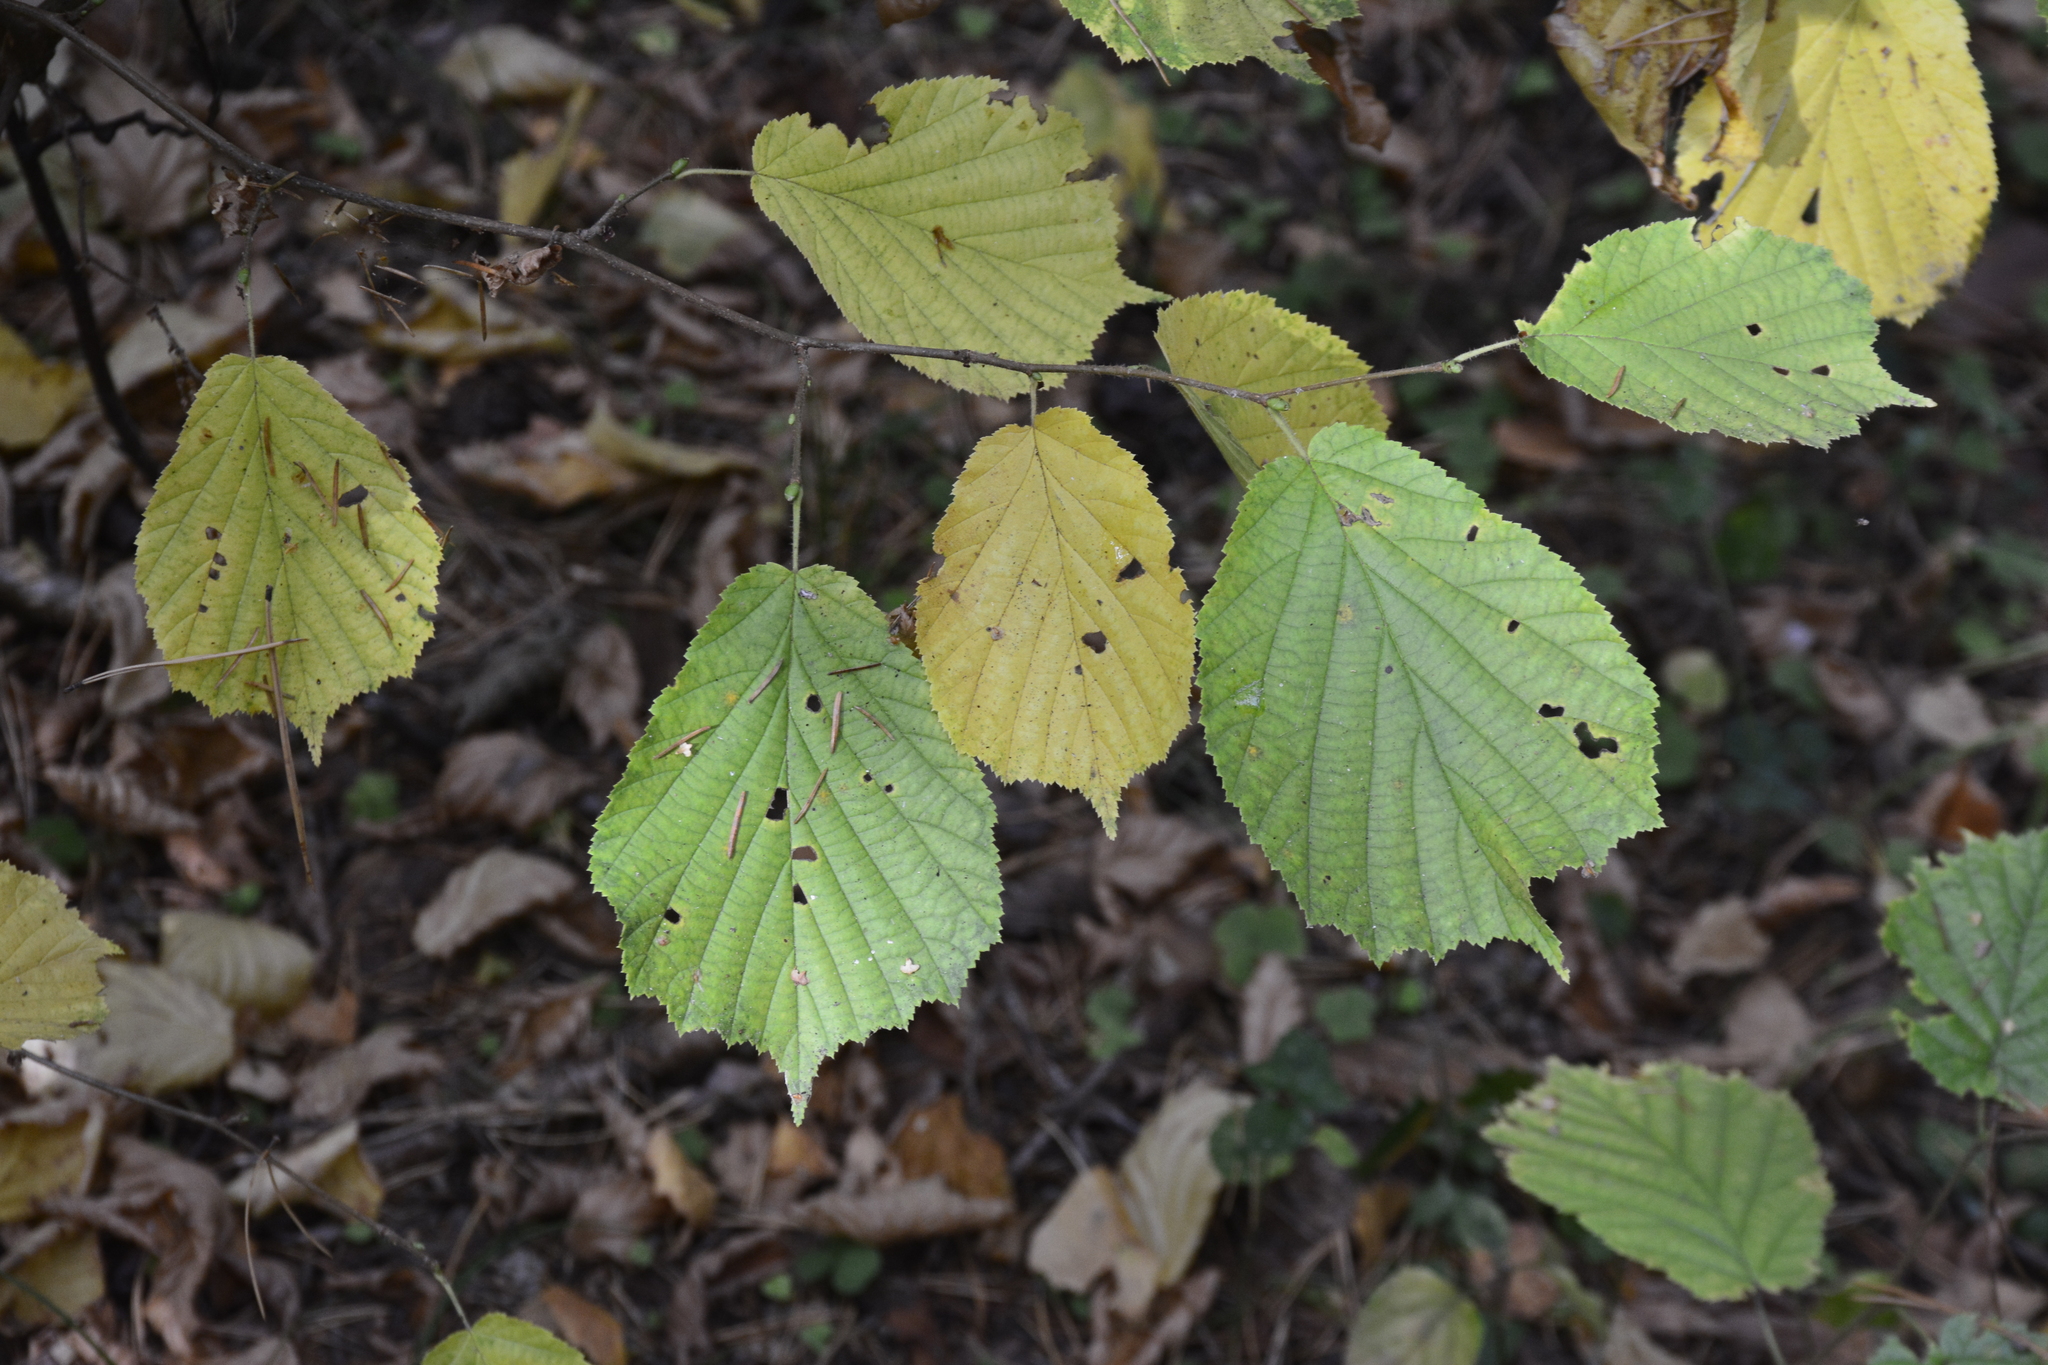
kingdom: Plantae
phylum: Tracheophyta
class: Magnoliopsida
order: Fagales
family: Betulaceae
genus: Corylus
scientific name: Corylus avellana
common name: European hazel
